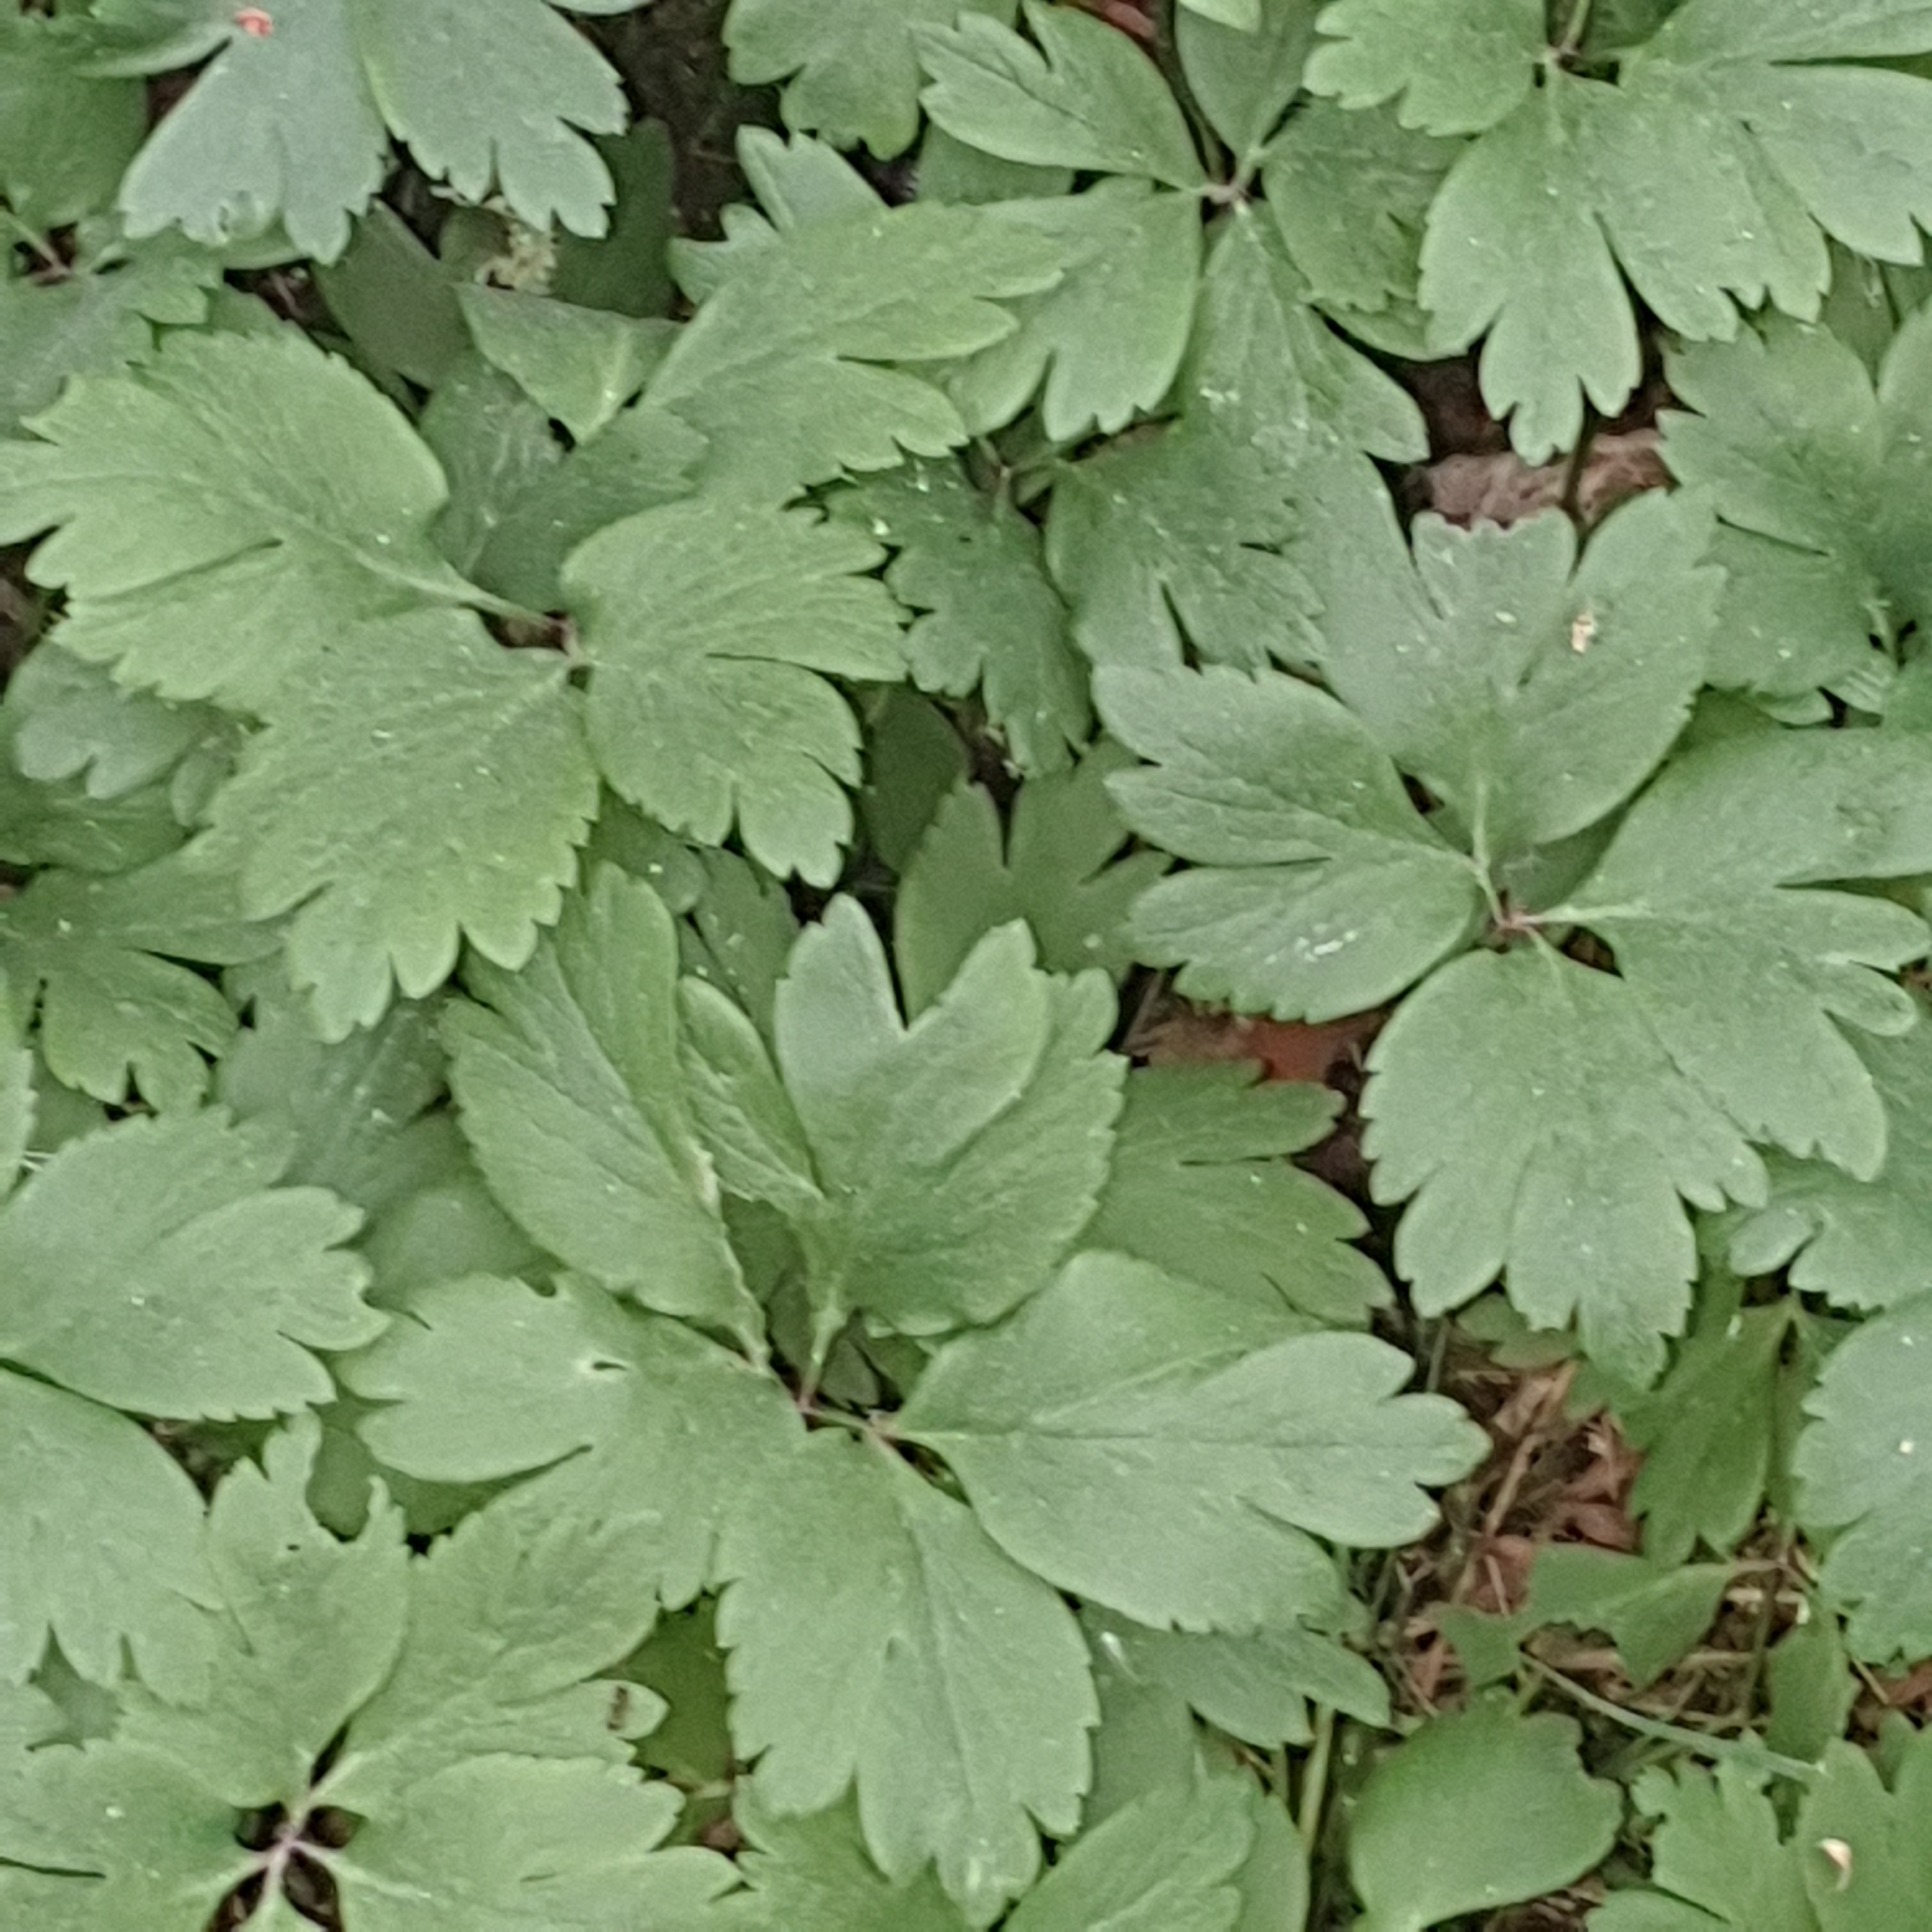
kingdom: Plantae
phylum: Tracheophyta
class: Magnoliopsida
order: Ranunculales
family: Ranunculaceae
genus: Anemone
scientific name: Anemone nemorosa
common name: Wood anemone
